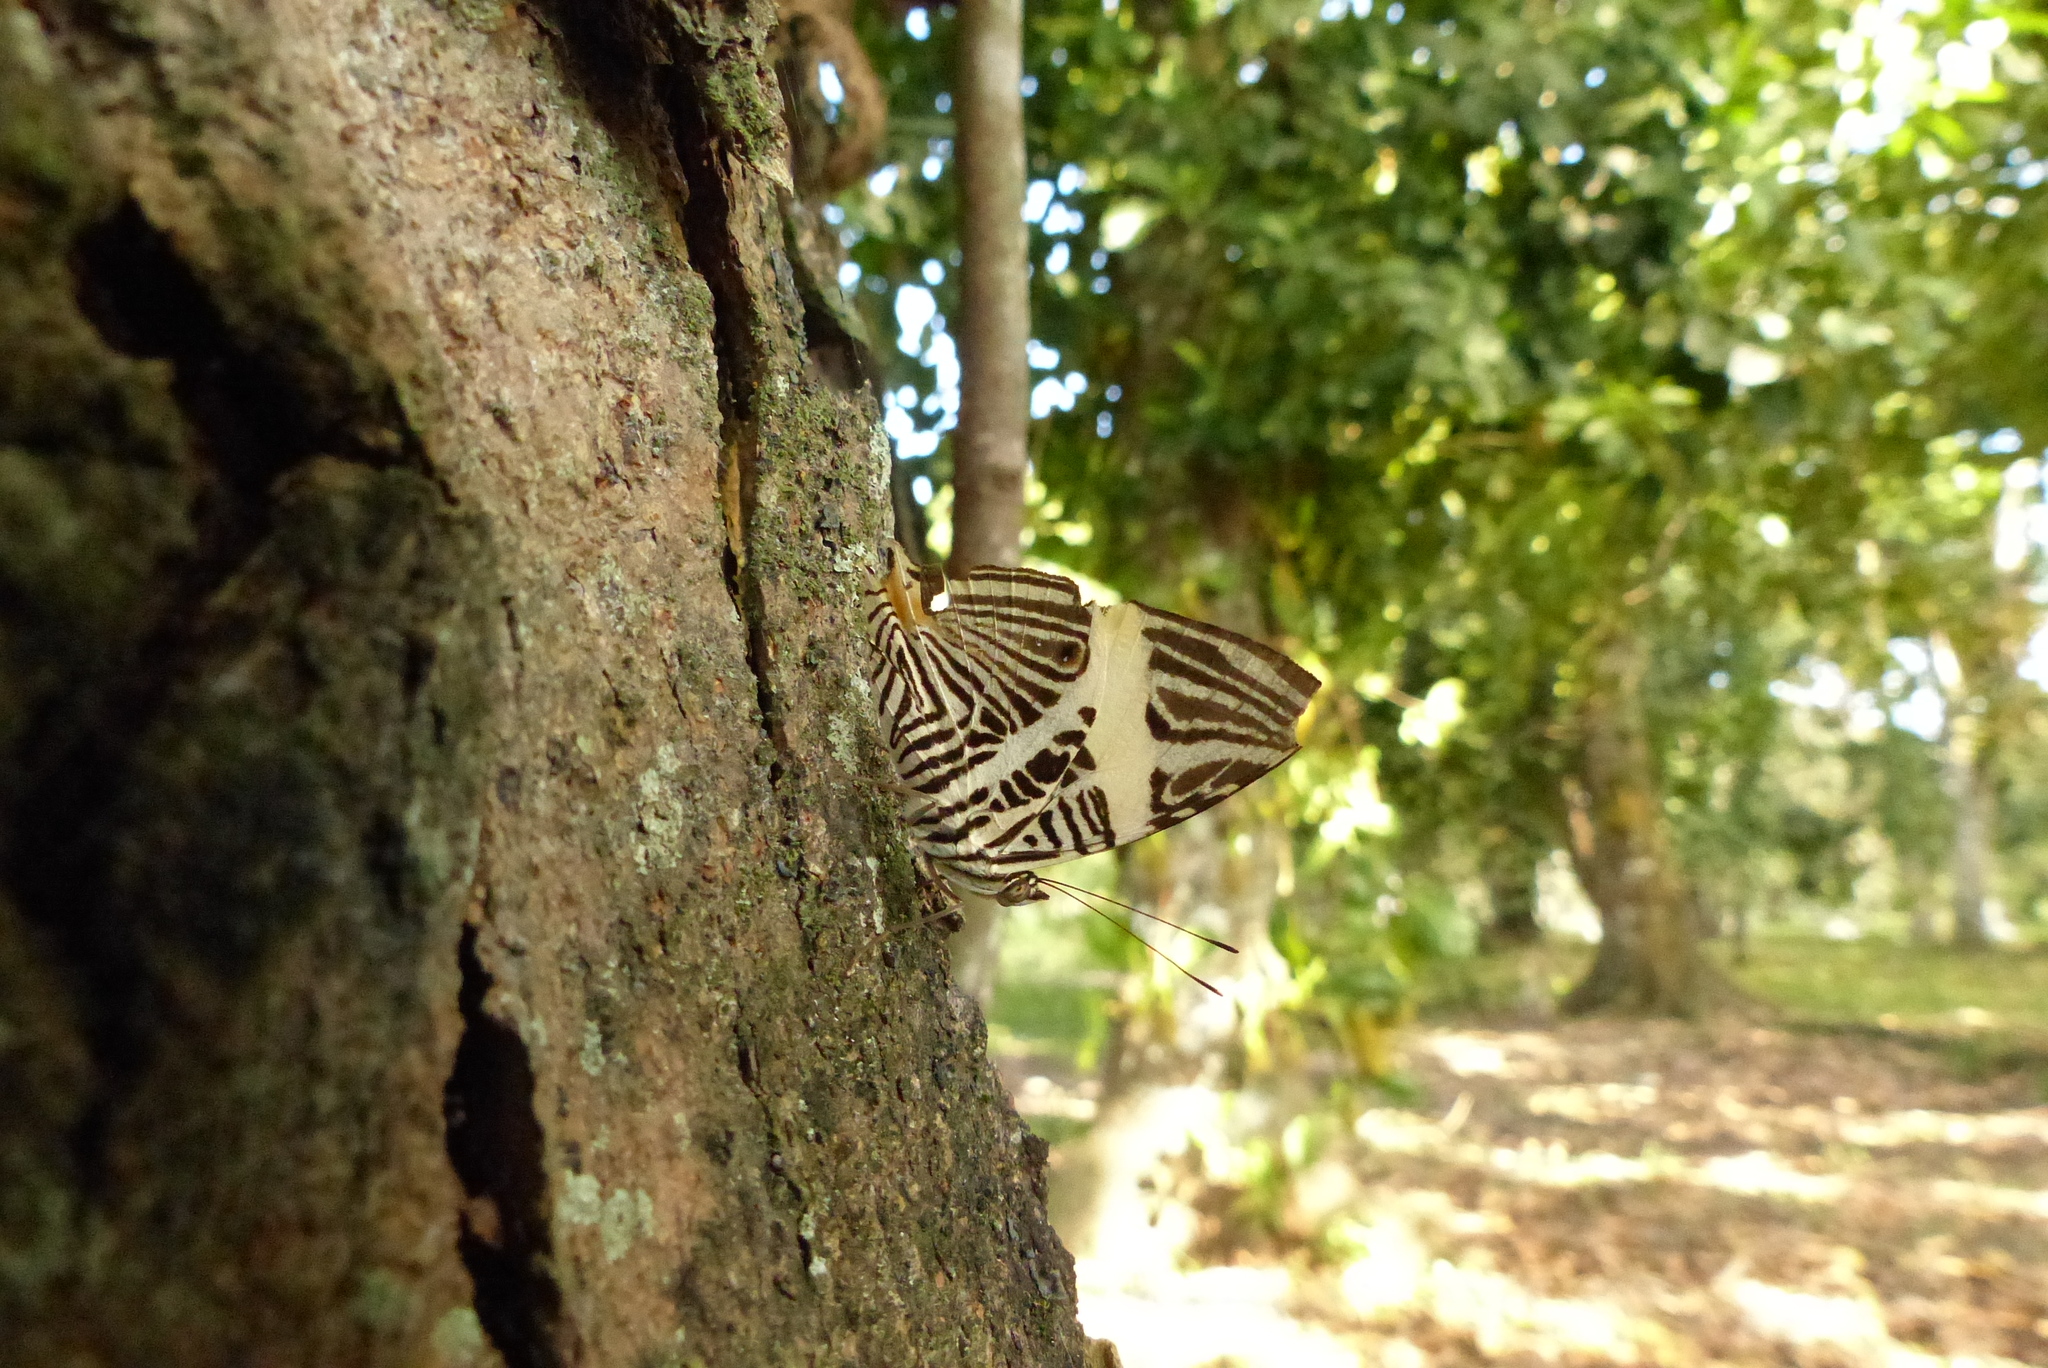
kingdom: Animalia
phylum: Arthropoda
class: Insecta
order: Lepidoptera
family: Nymphalidae
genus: Colobura
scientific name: Colobura dirce
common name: Dirce beauty
